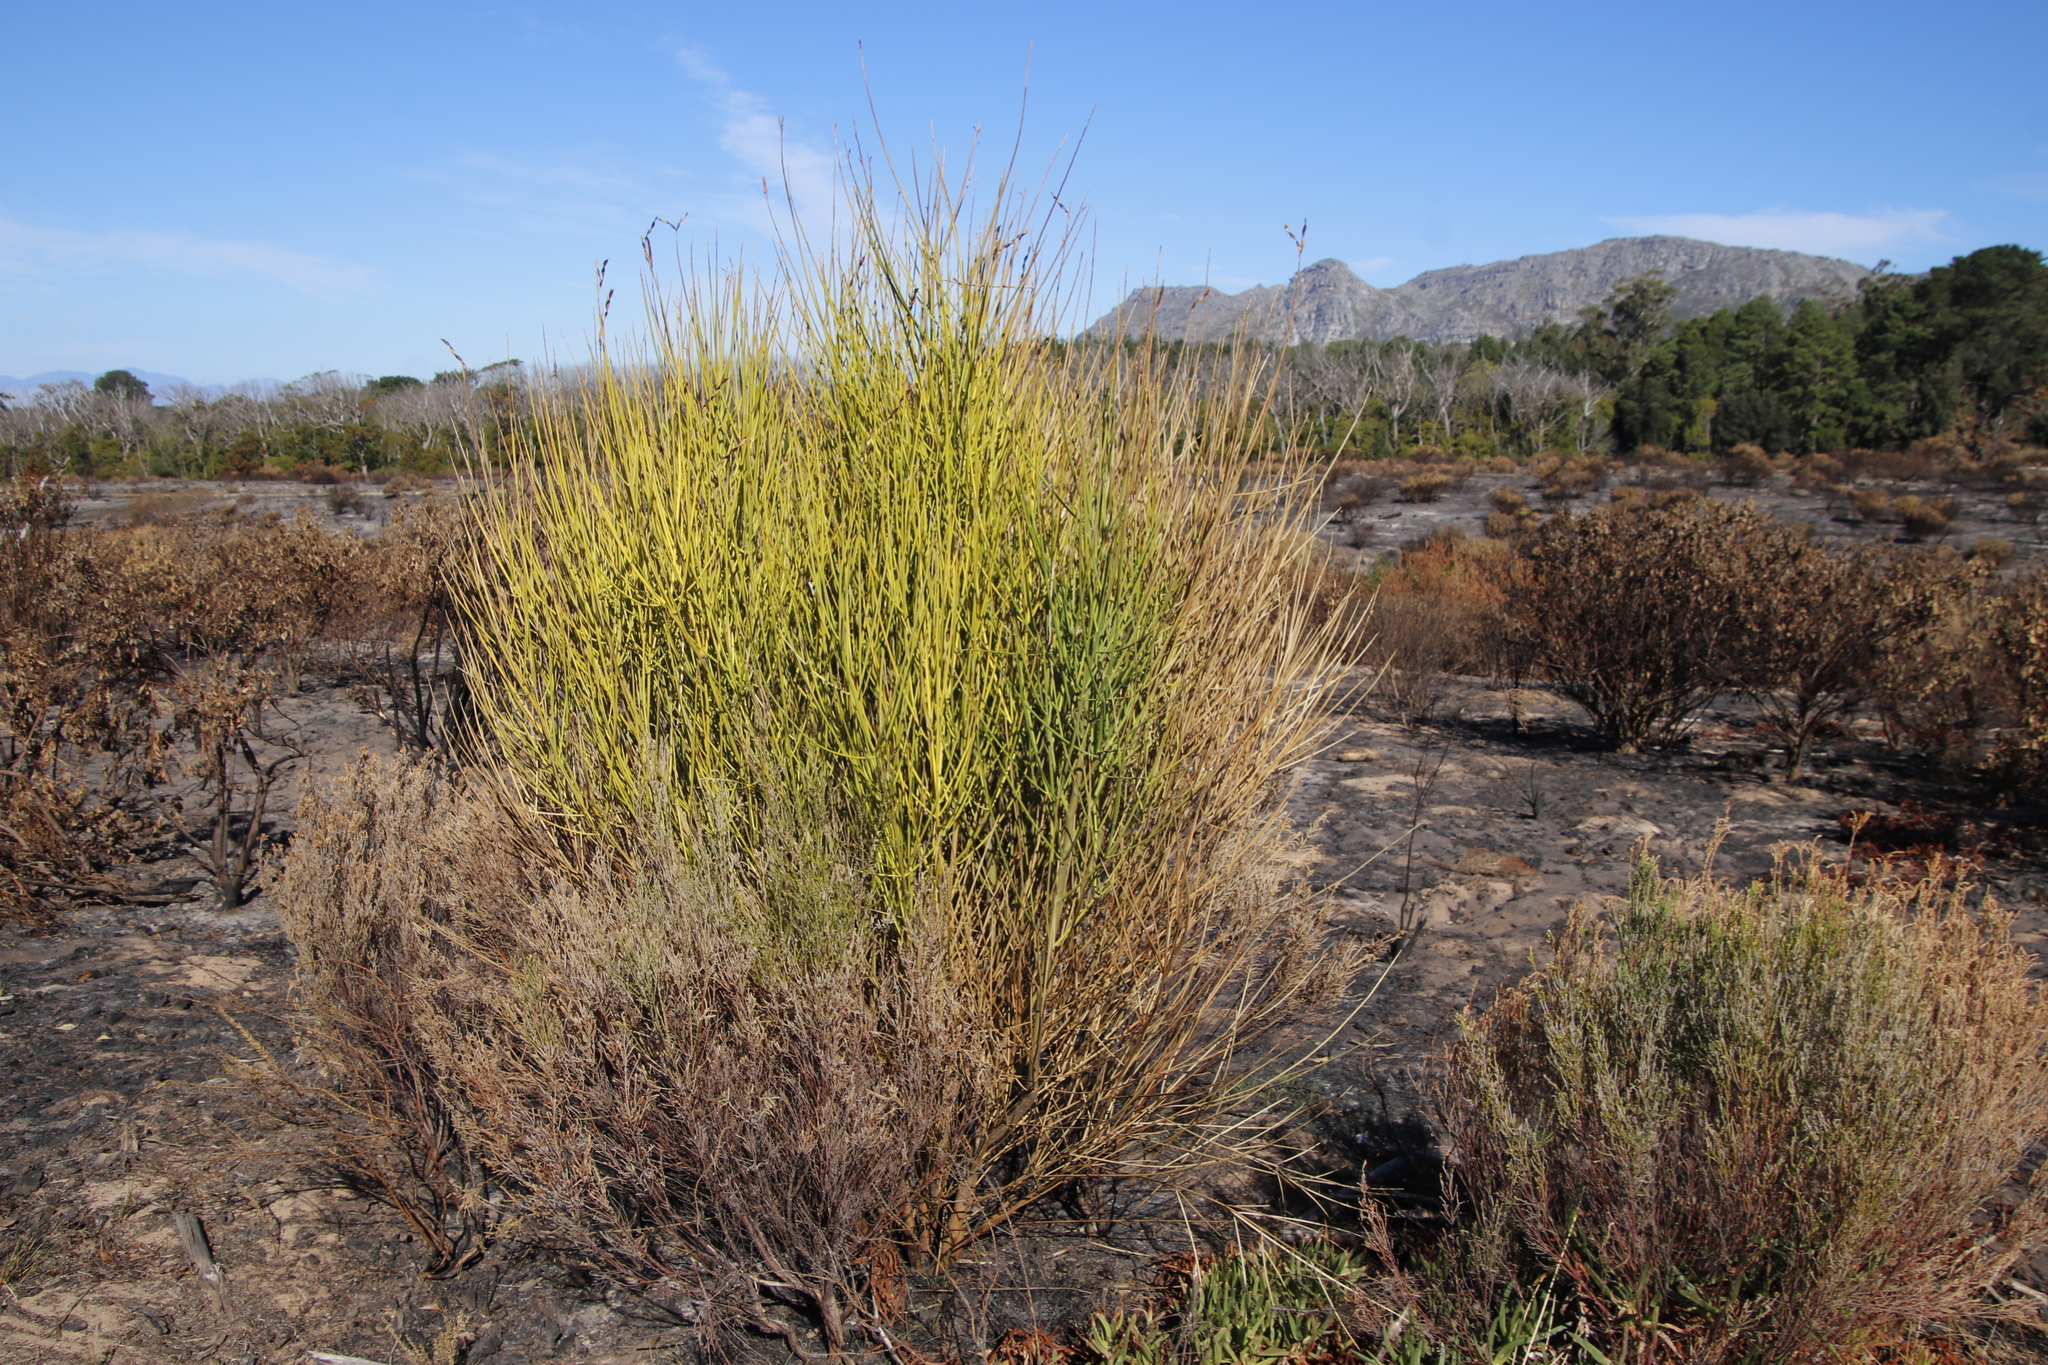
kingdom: Plantae
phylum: Tracheophyta
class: Magnoliopsida
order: Fabales
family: Fabaceae
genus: Spartium
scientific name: Spartium junceum
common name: Spanish broom
